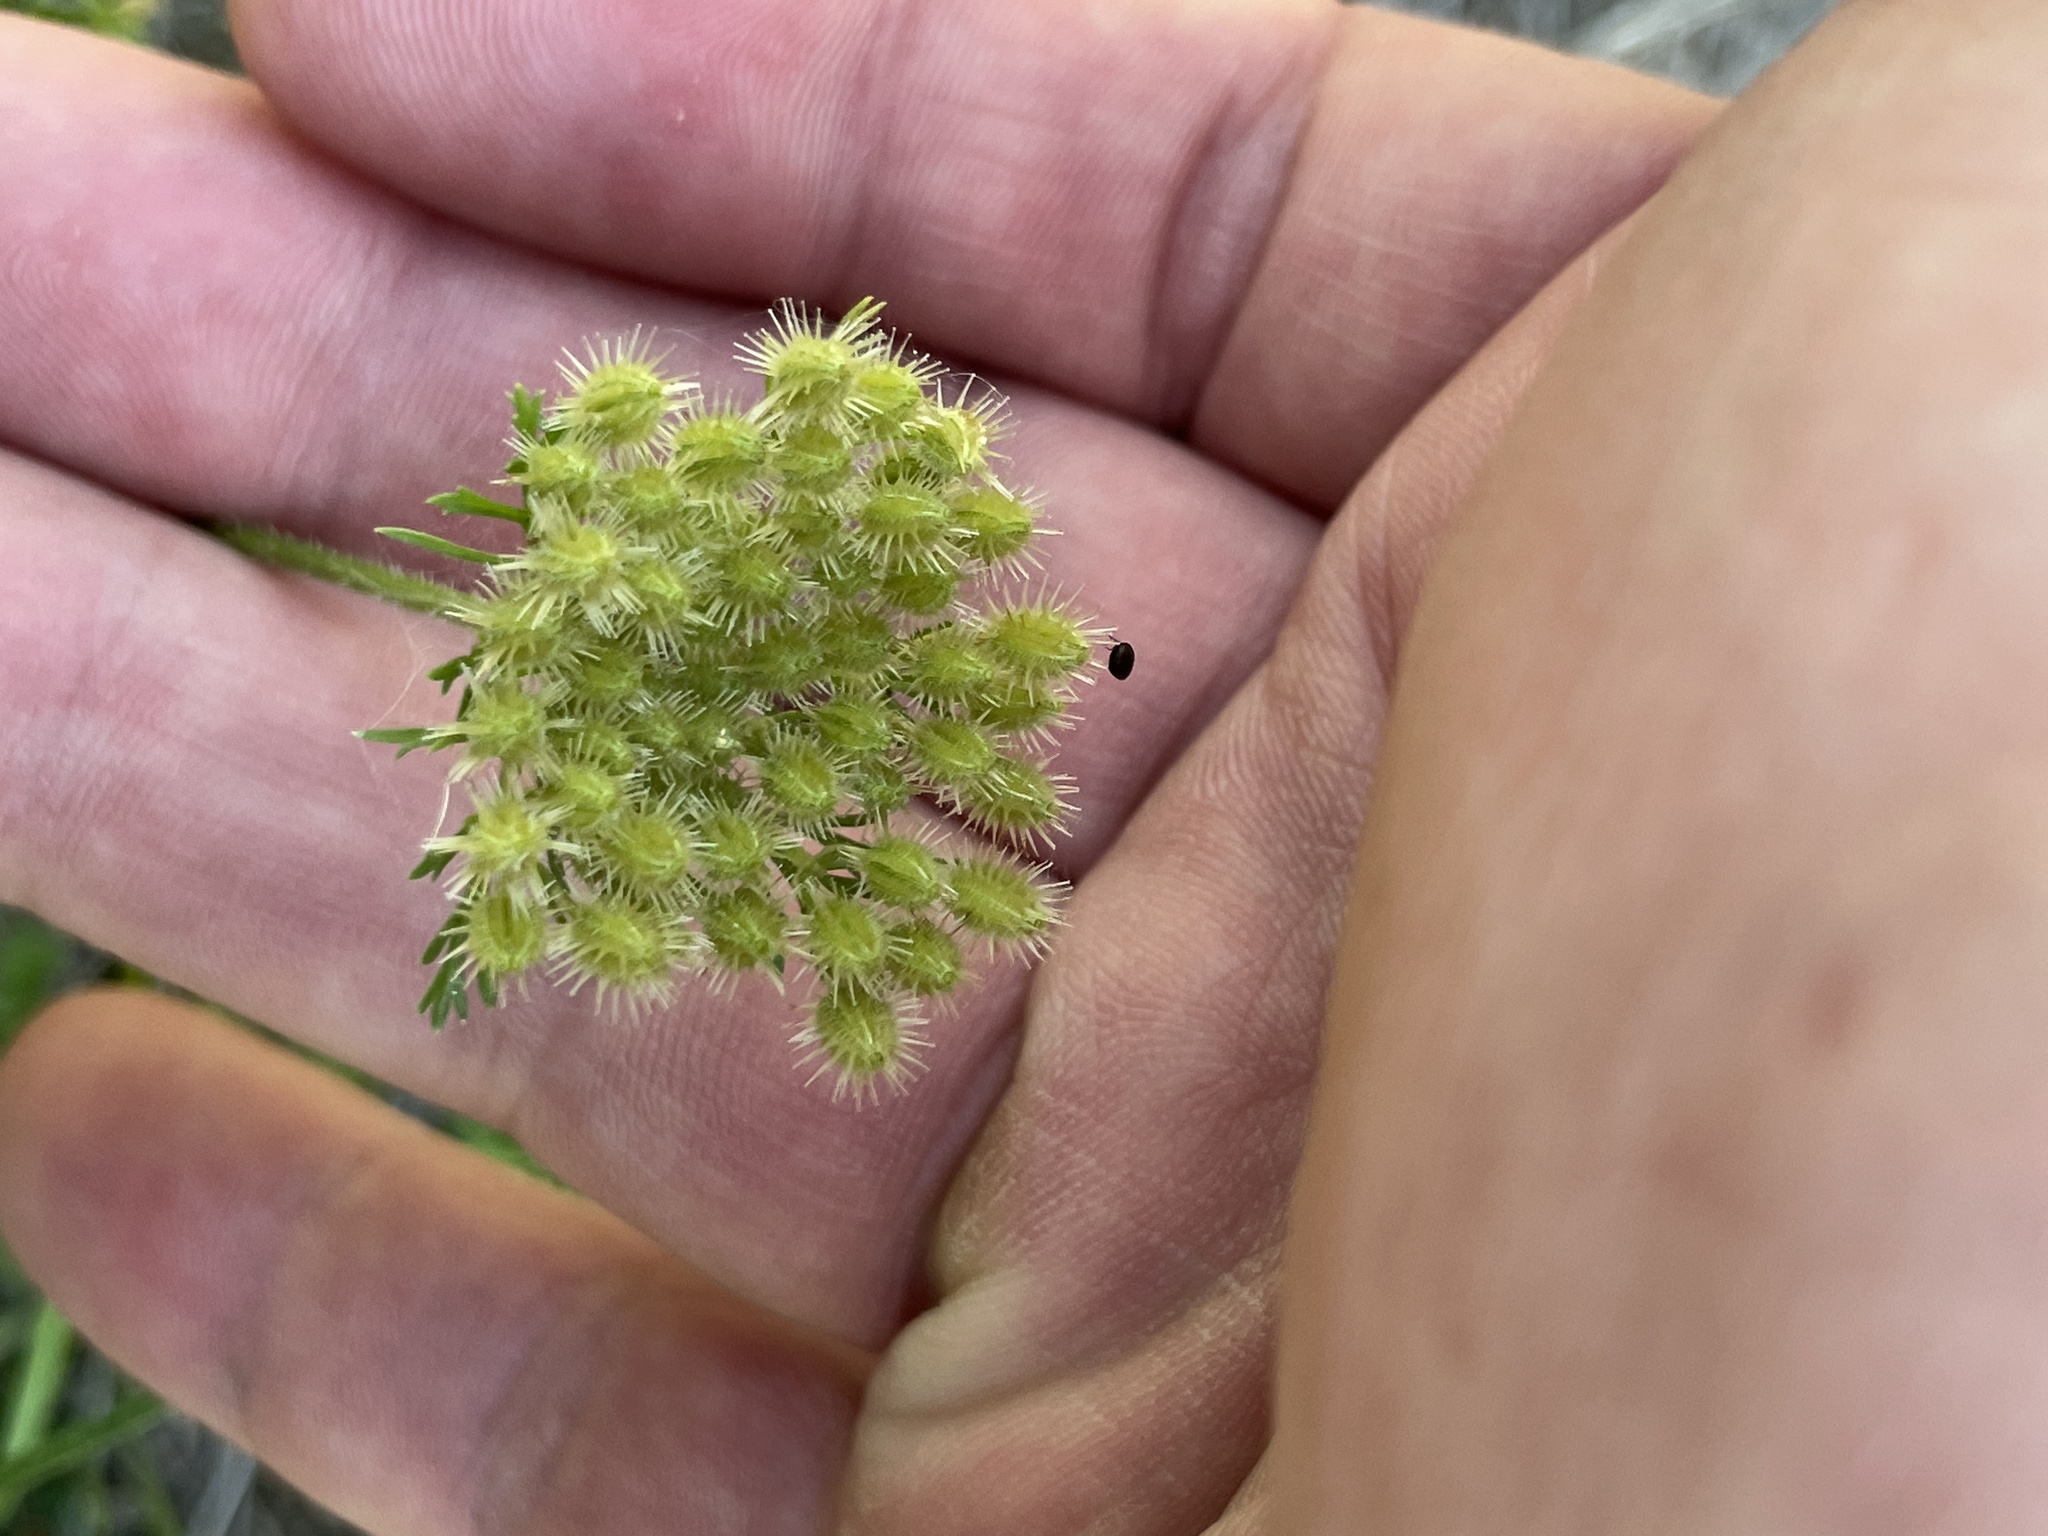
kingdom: Plantae
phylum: Tracheophyta
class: Magnoliopsida
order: Apiales
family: Apiaceae
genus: Daucus
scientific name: Daucus pusillus
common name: Southwest wild carrot
